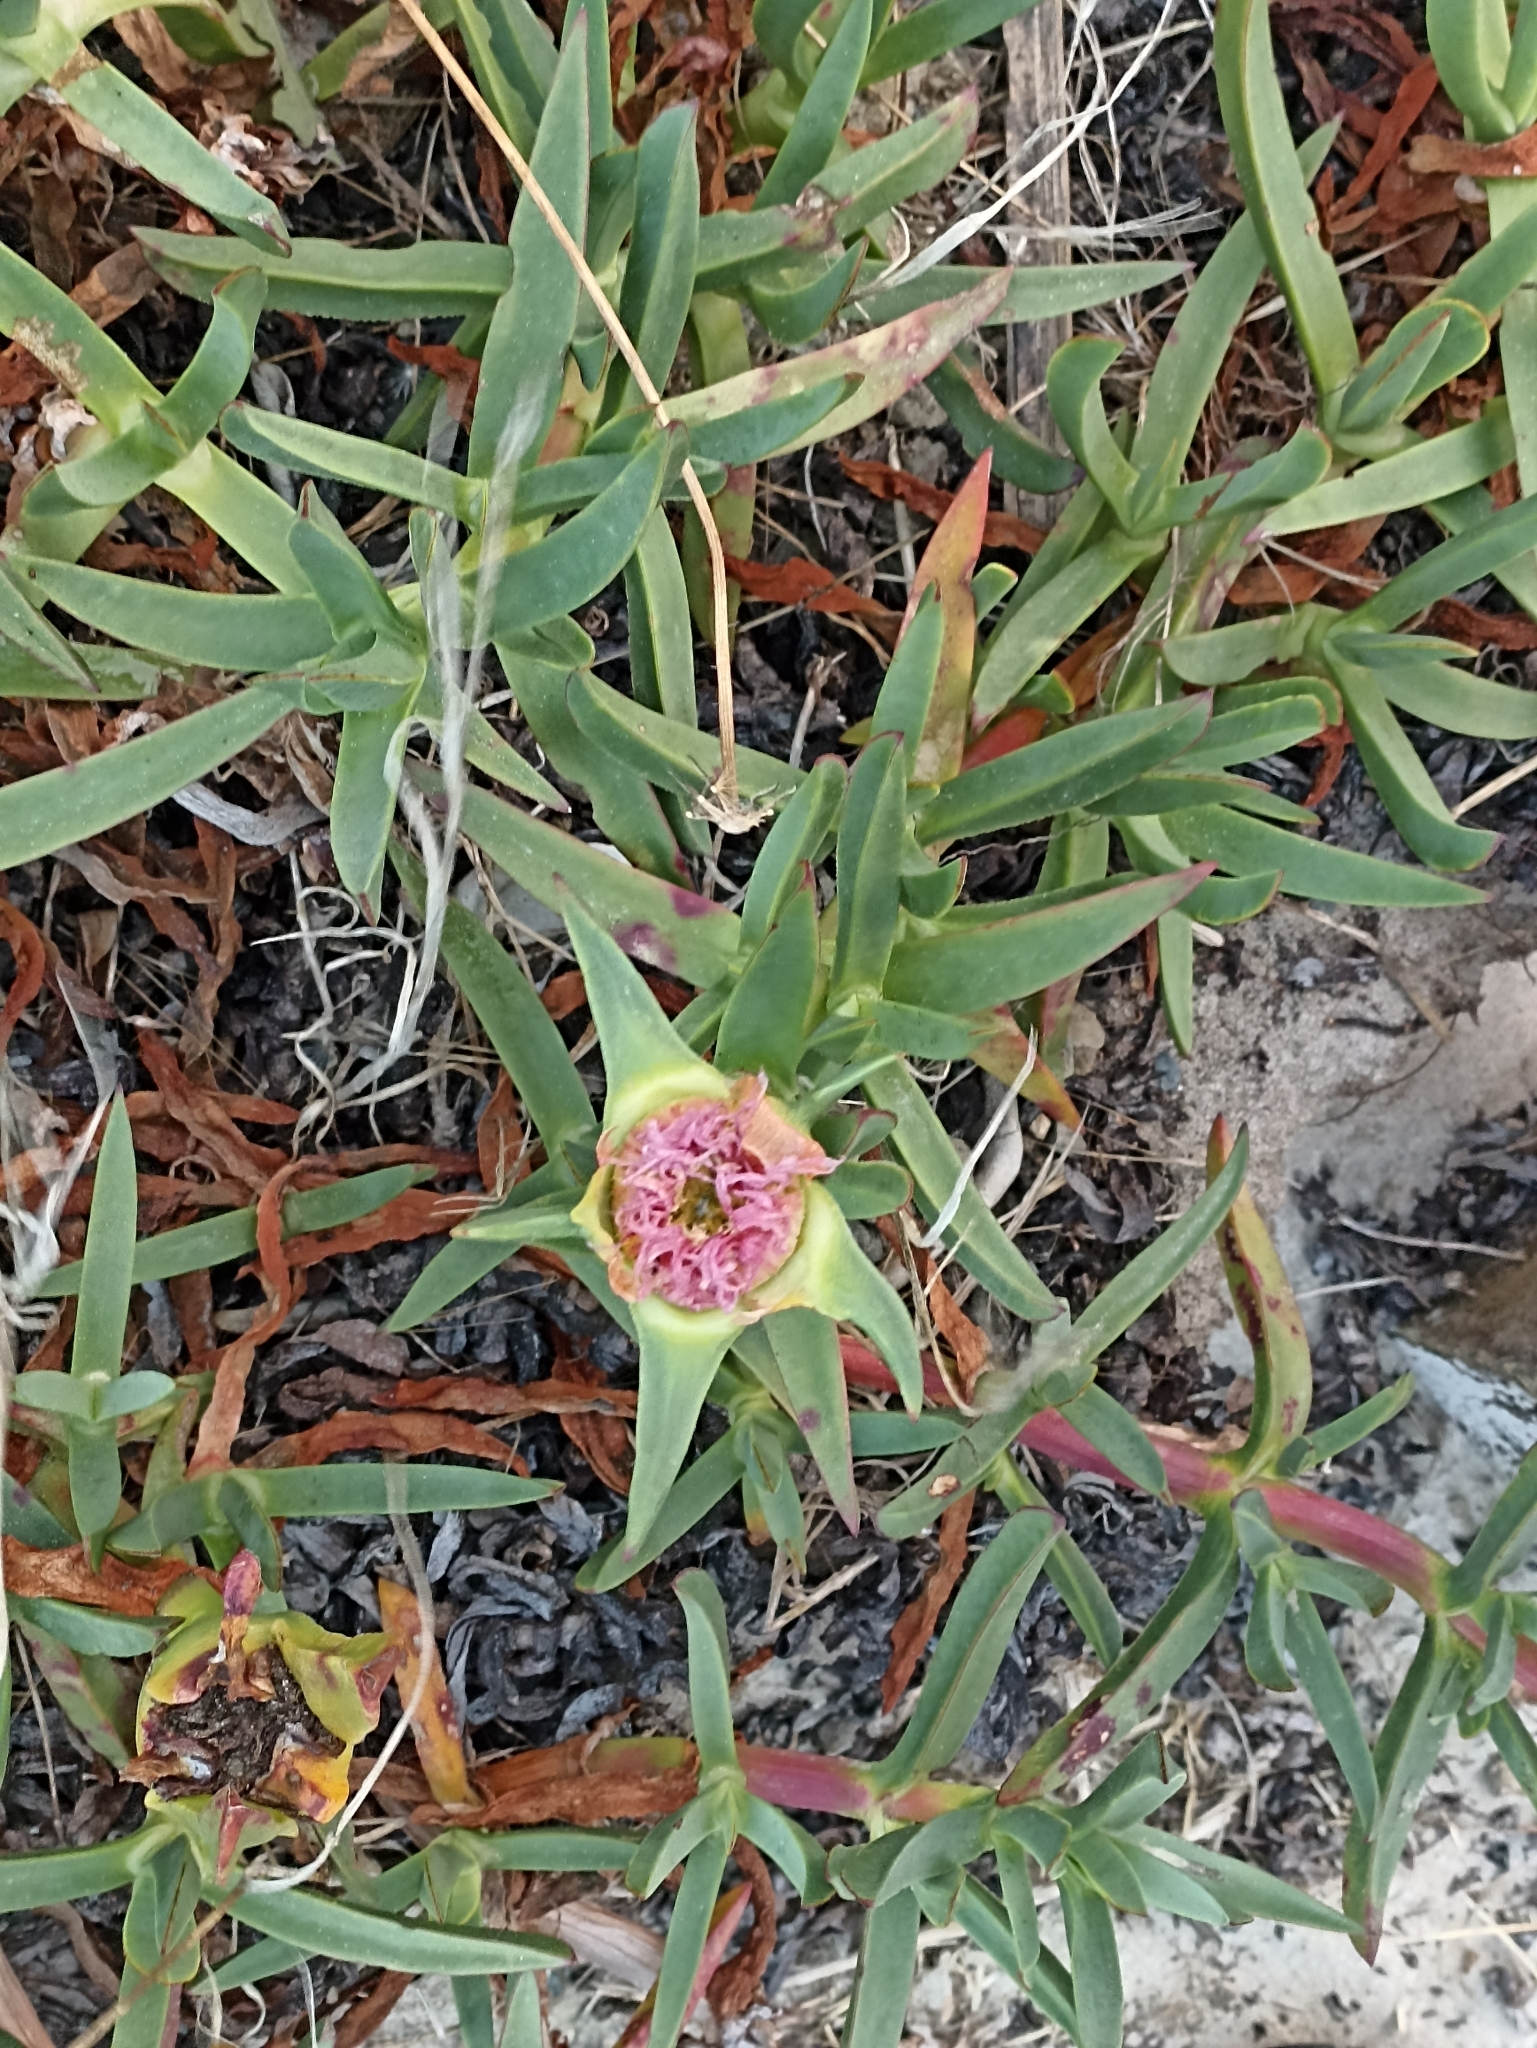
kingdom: Plantae
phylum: Tracheophyta
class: Magnoliopsida
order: Caryophyllales
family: Aizoaceae
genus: Carpobrotus
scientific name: Carpobrotus edulis
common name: Hottentot-fig
